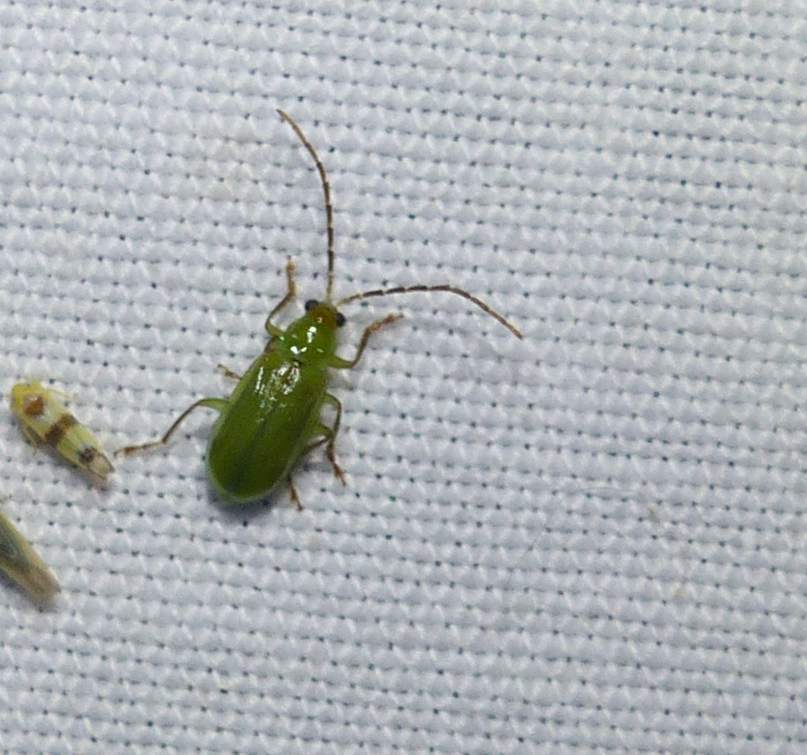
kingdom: Animalia
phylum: Arthropoda
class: Insecta
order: Coleoptera
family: Chrysomelidae
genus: Diabrotica
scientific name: Diabrotica barberi
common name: Northern corn rootworm
